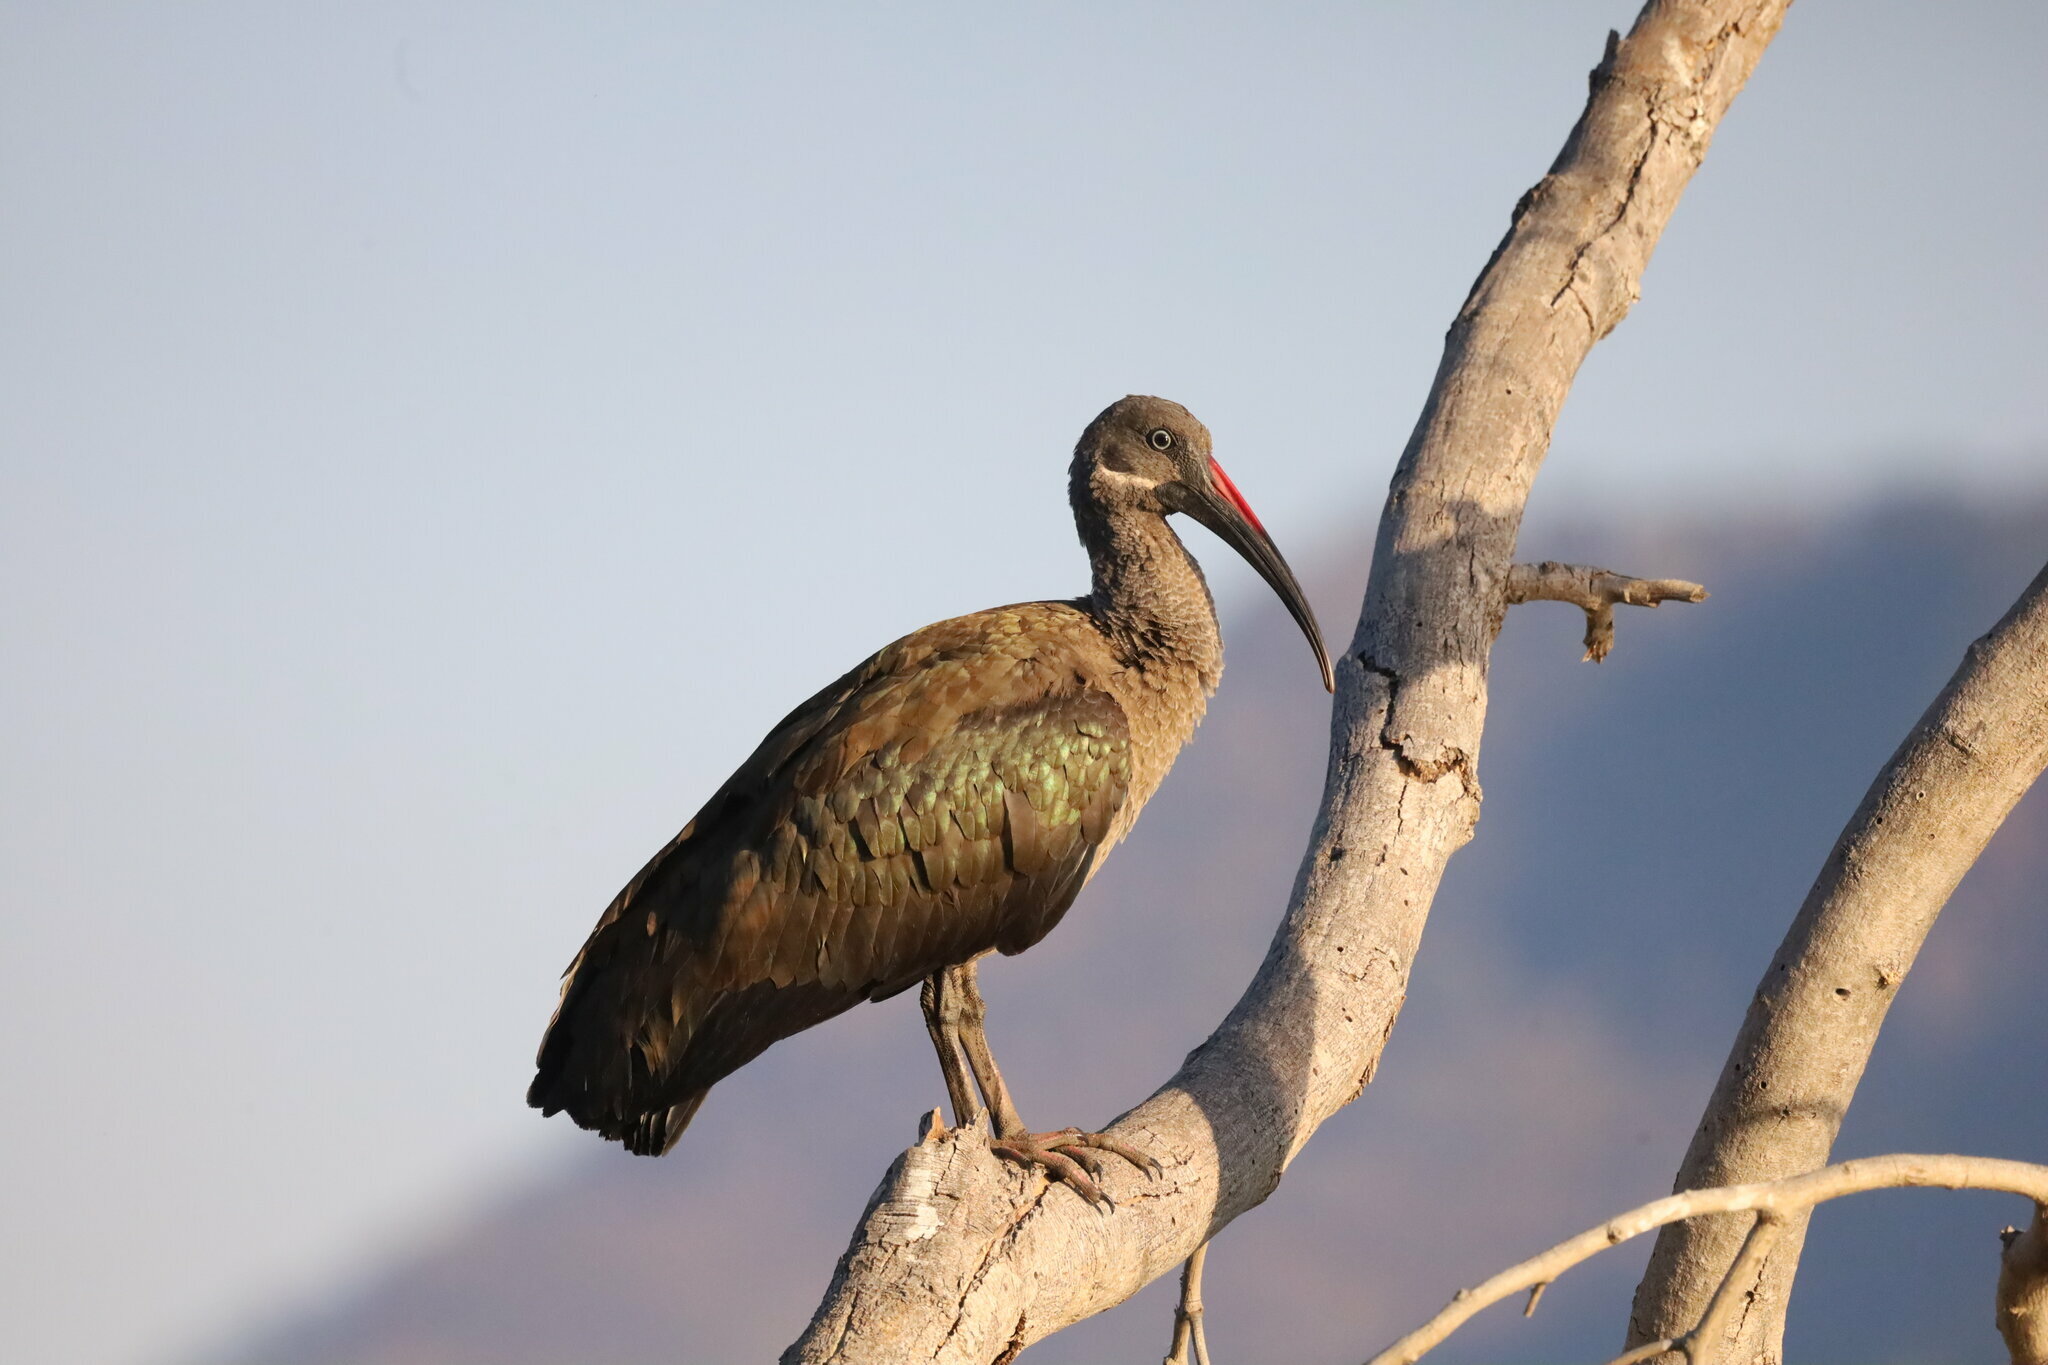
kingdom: Animalia
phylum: Chordata
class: Aves
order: Pelecaniformes
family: Threskiornithidae
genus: Bostrychia
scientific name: Bostrychia hagedash
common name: Hadada ibis
